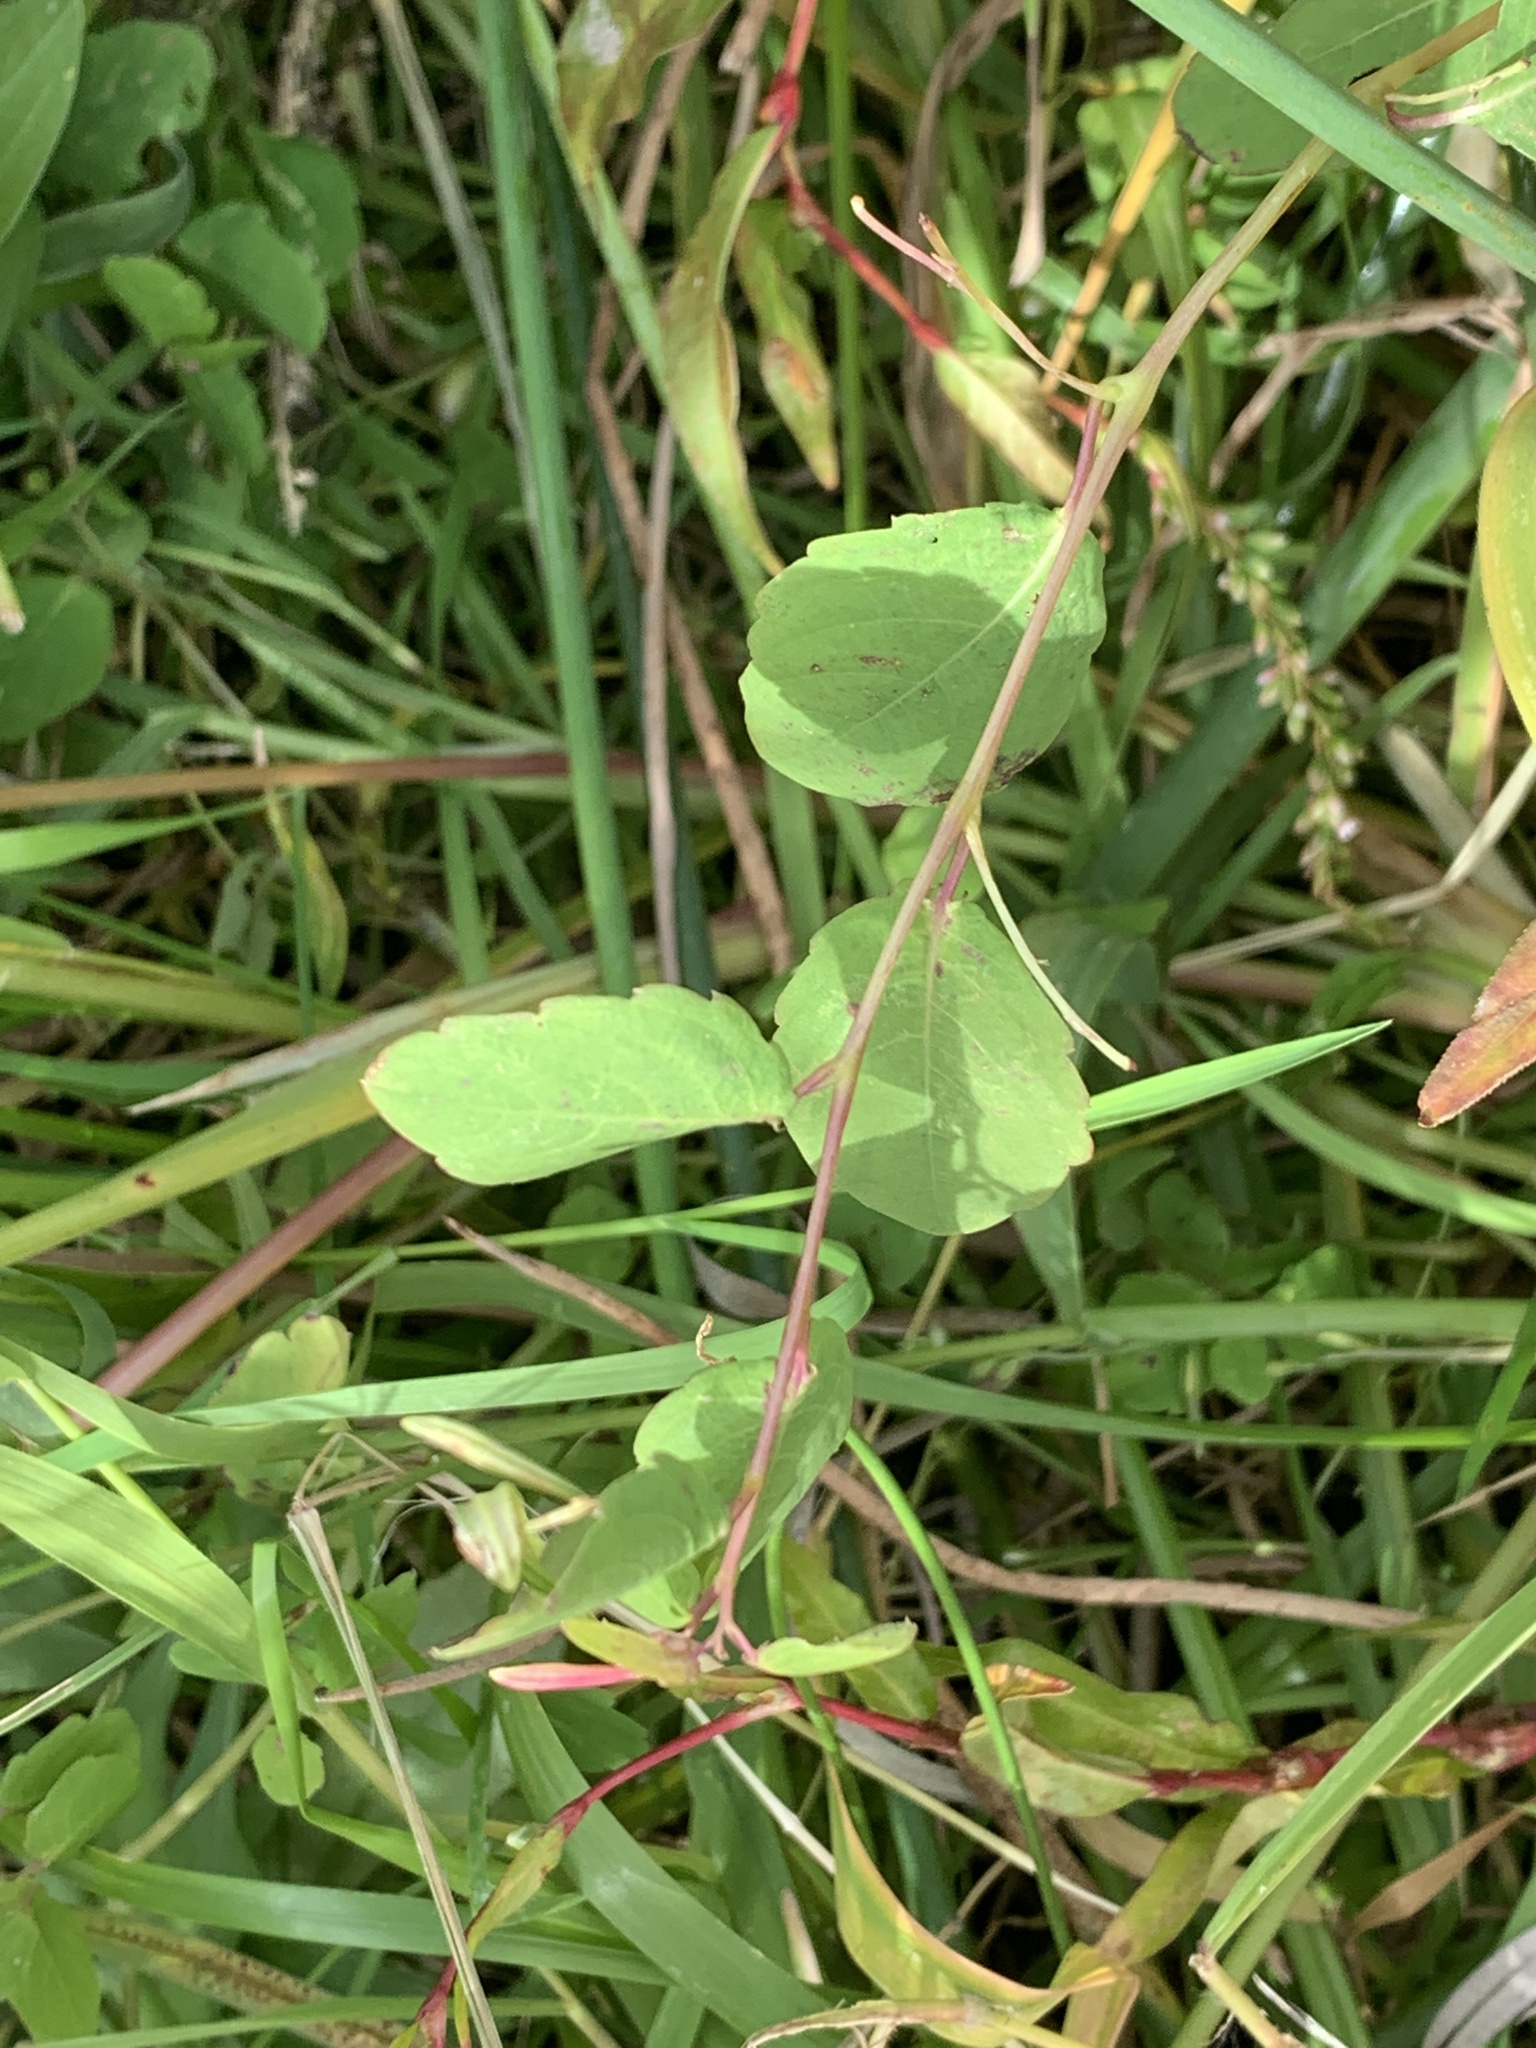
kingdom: Plantae
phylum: Tracheophyta
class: Magnoliopsida
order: Ericales
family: Balsaminaceae
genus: Impatiens
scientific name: Impatiens capensis
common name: Orange balsam
